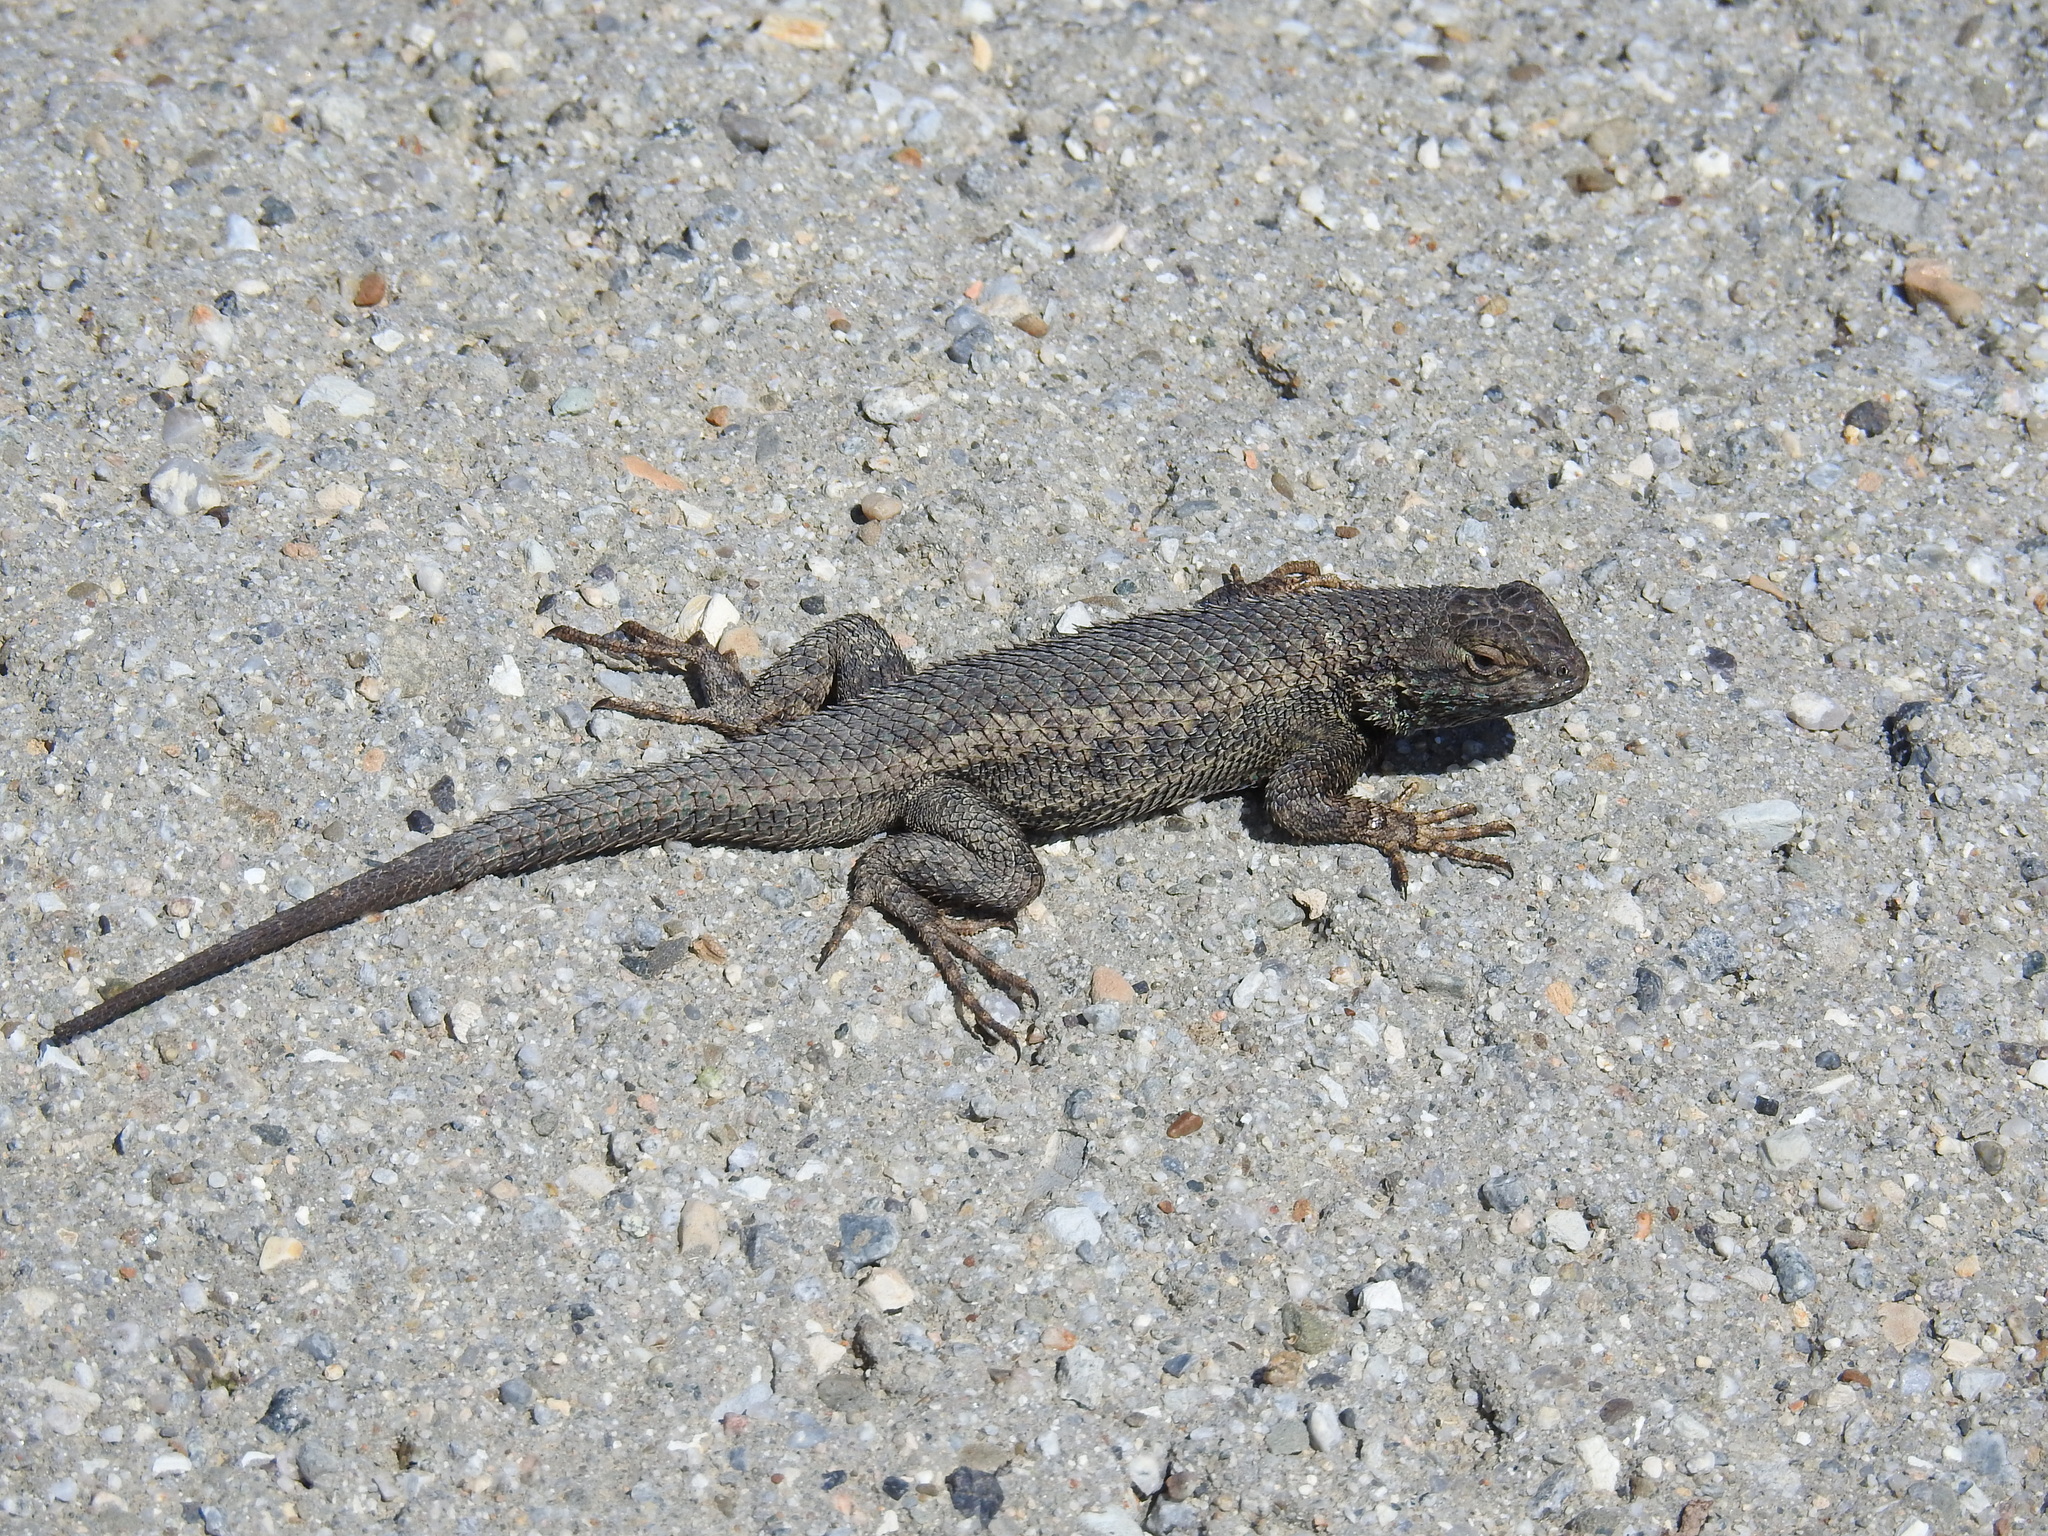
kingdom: Animalia
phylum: Chordata
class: Squamata
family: Phrynosomatidae
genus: Sceloporus
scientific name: Sceloporus occidentalis
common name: Western fence lizard
